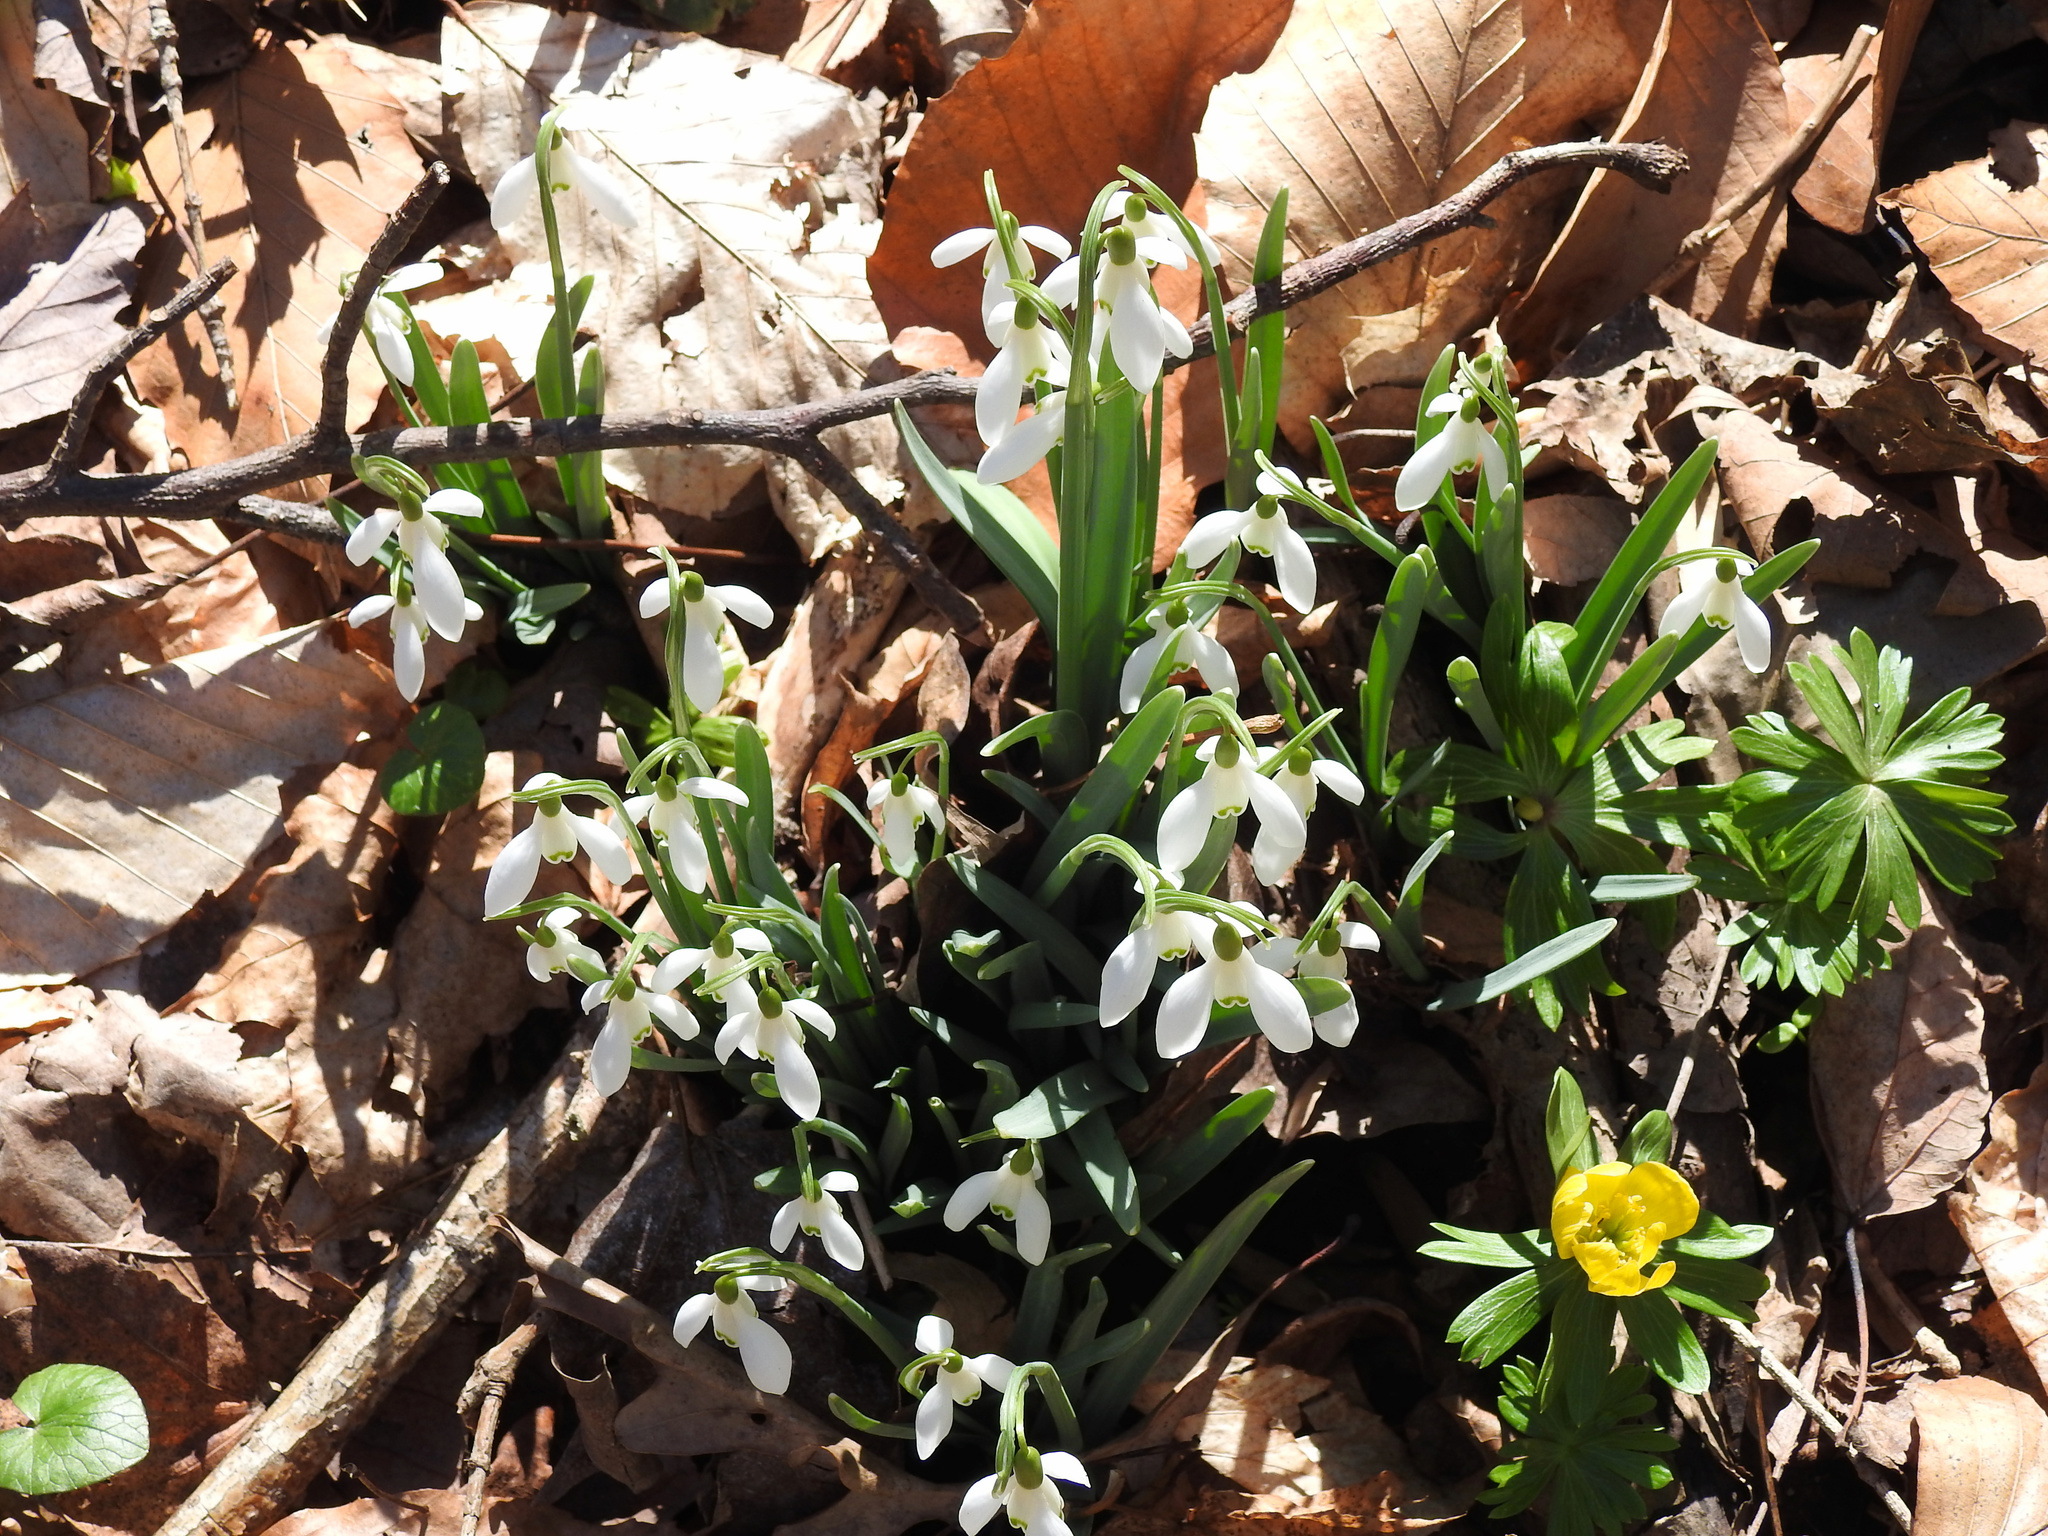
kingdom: Plantae
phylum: Tracheophyta
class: Liliopsida
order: Asparagales
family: Amaryllidaceae
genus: Galanthus
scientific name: Galanthus nivalis
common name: Snowdrop
